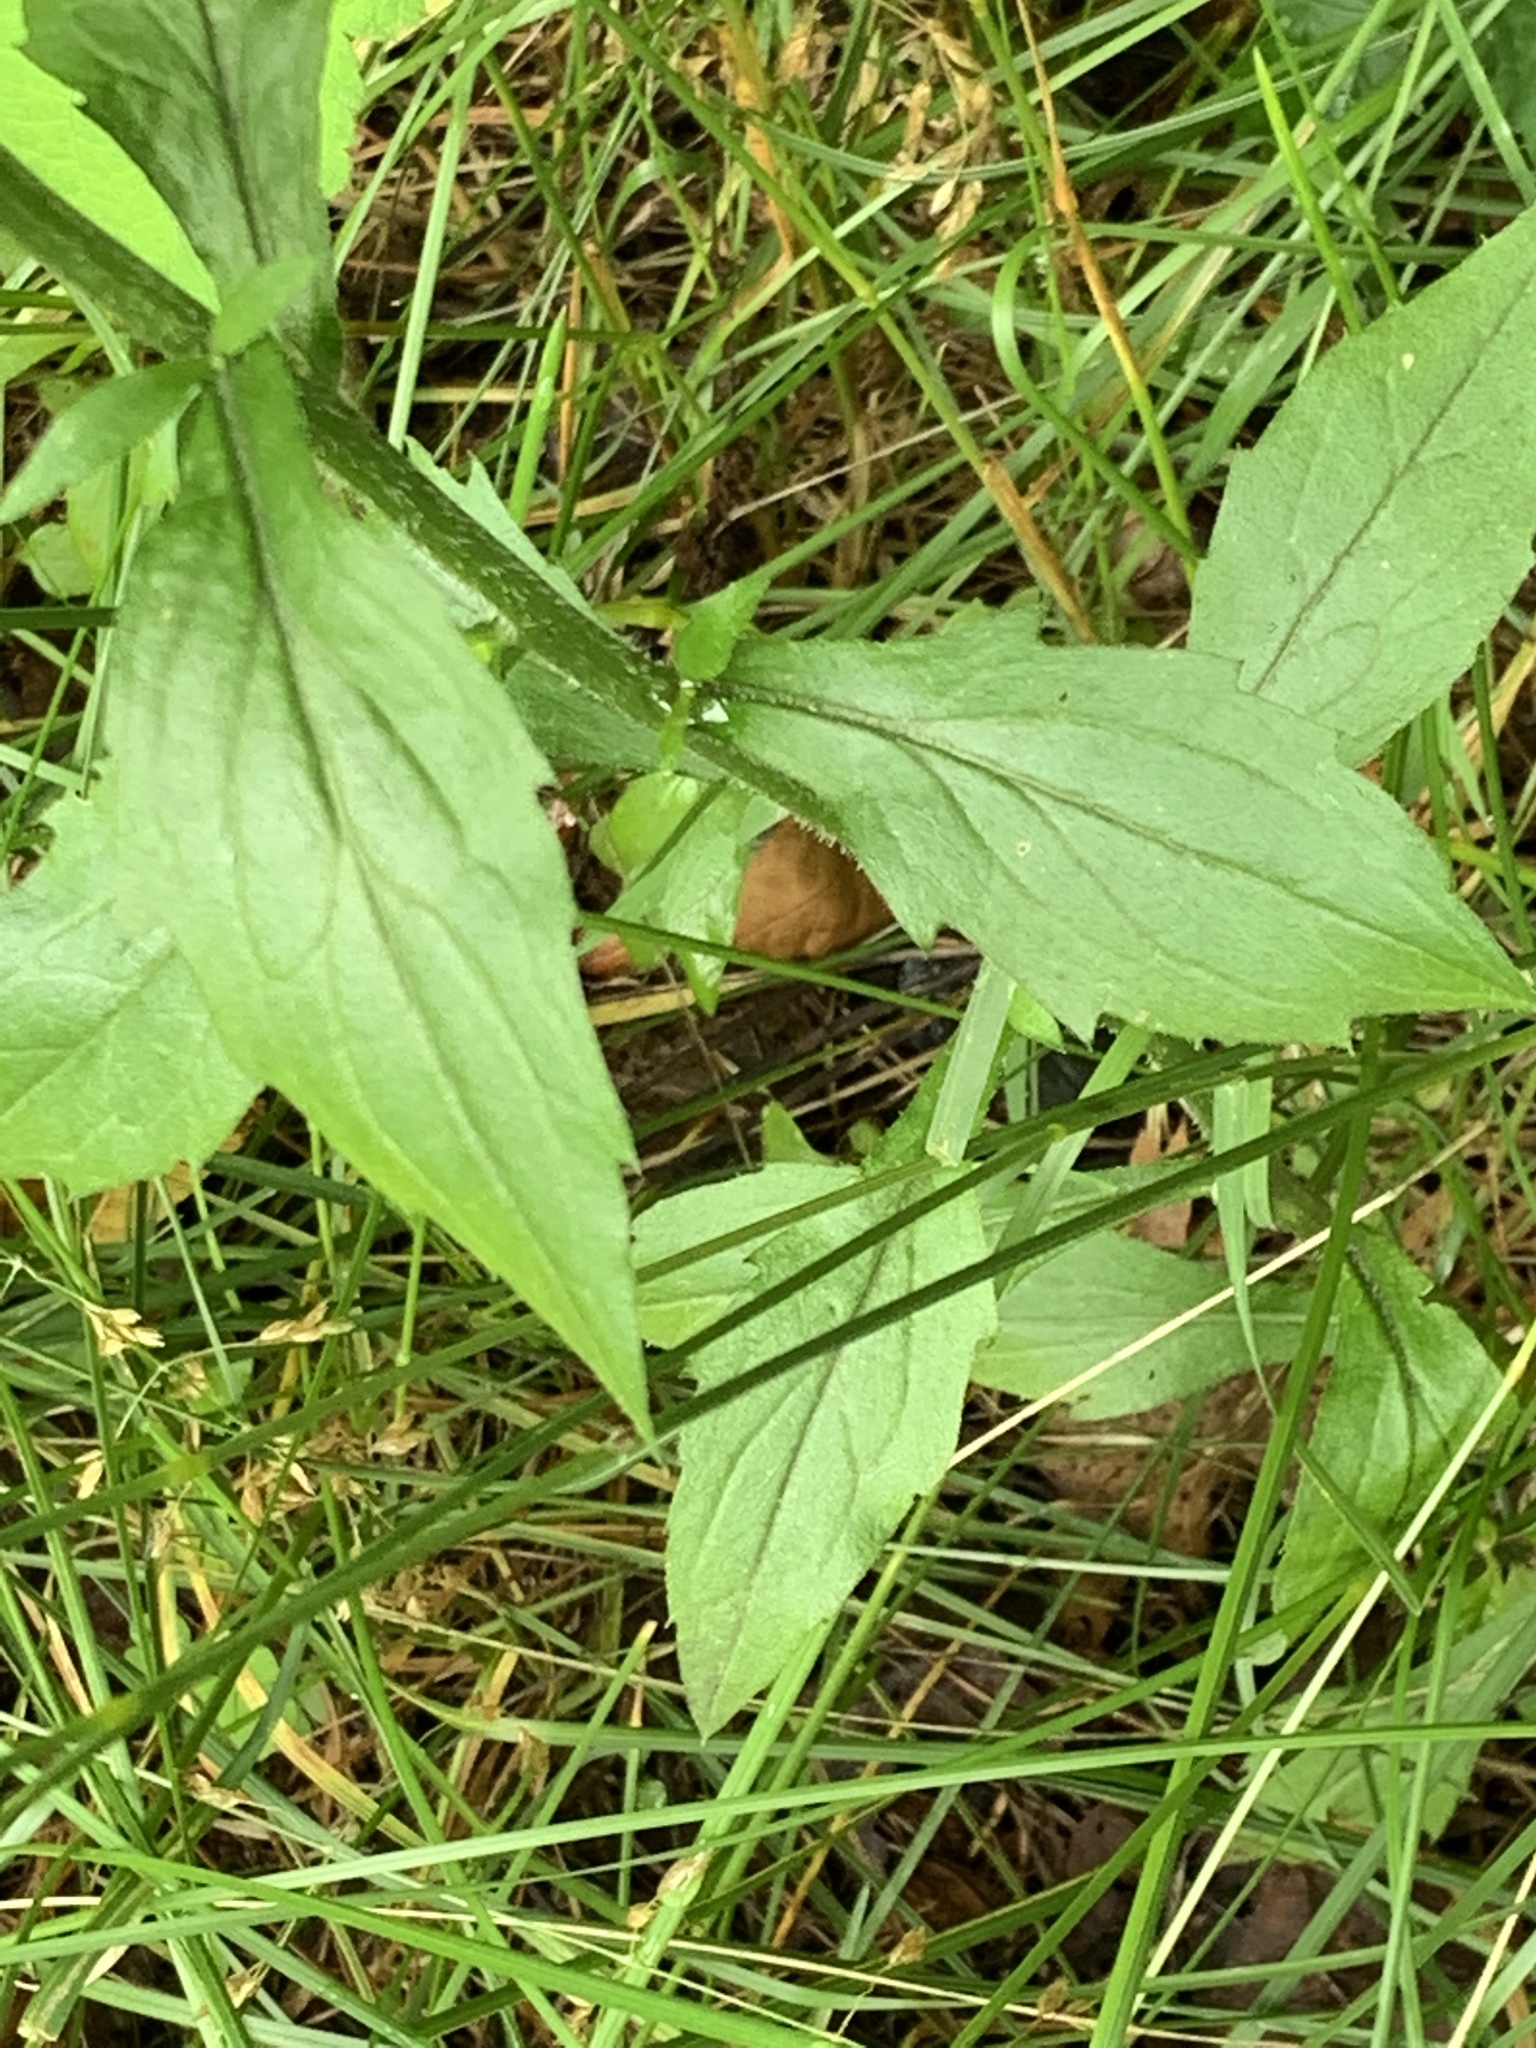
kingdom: Plantae
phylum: Tracheophyta
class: Magnoliopsida
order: Asterales
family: Asteraceae
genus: Erigeron
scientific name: Erigeron annuus
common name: Tall fleabane
